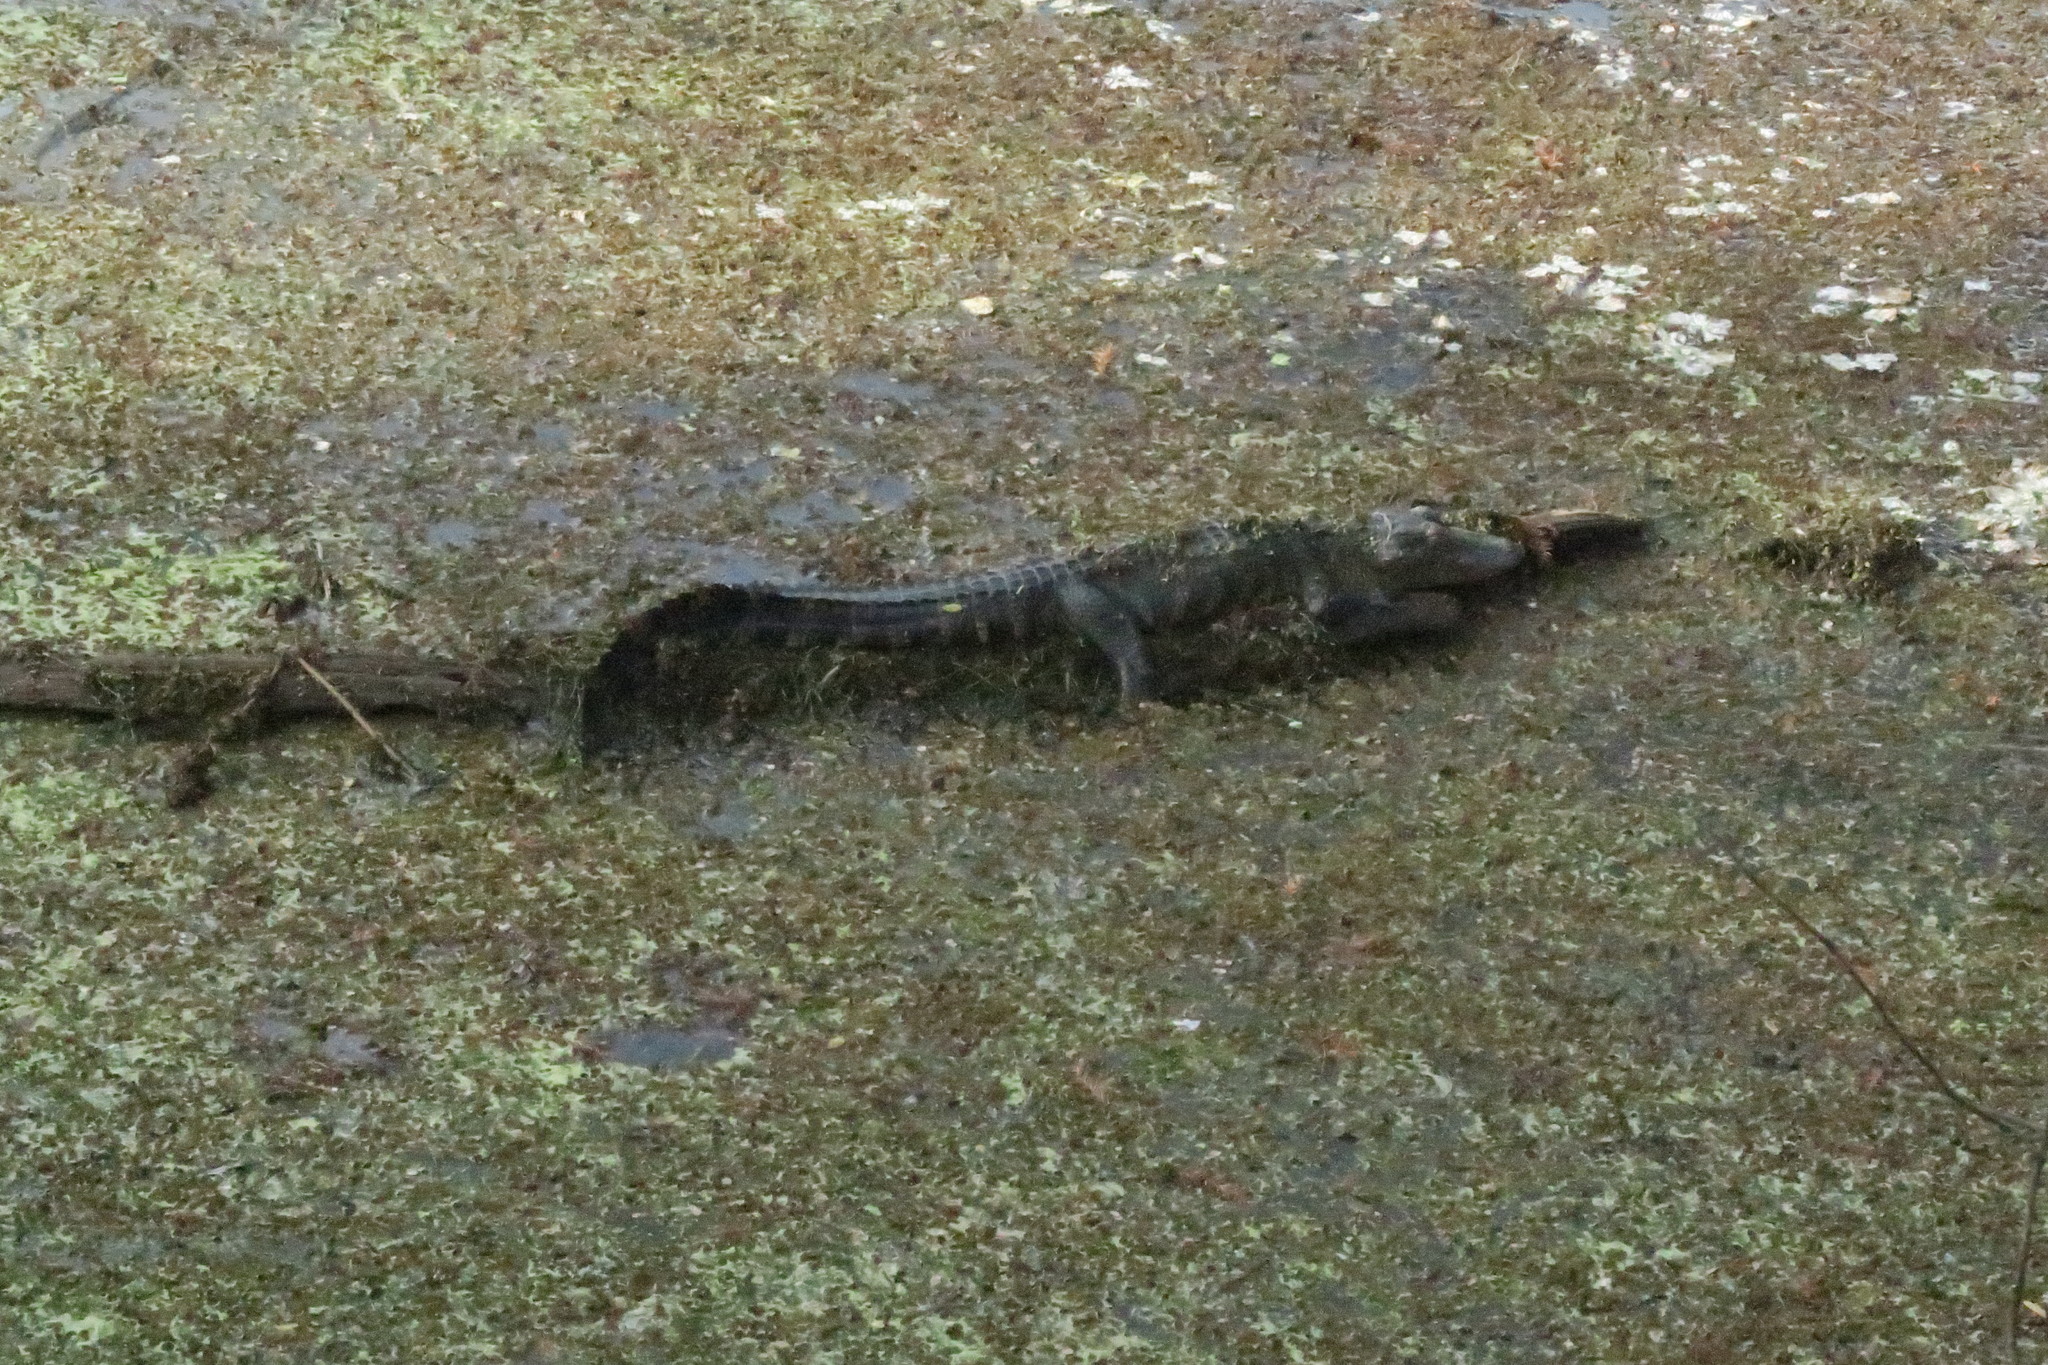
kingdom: Animalia
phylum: Chordata
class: Crocodylia
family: Alligatoridae
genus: Alligator
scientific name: Alligator mississippiensis
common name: American alligator
